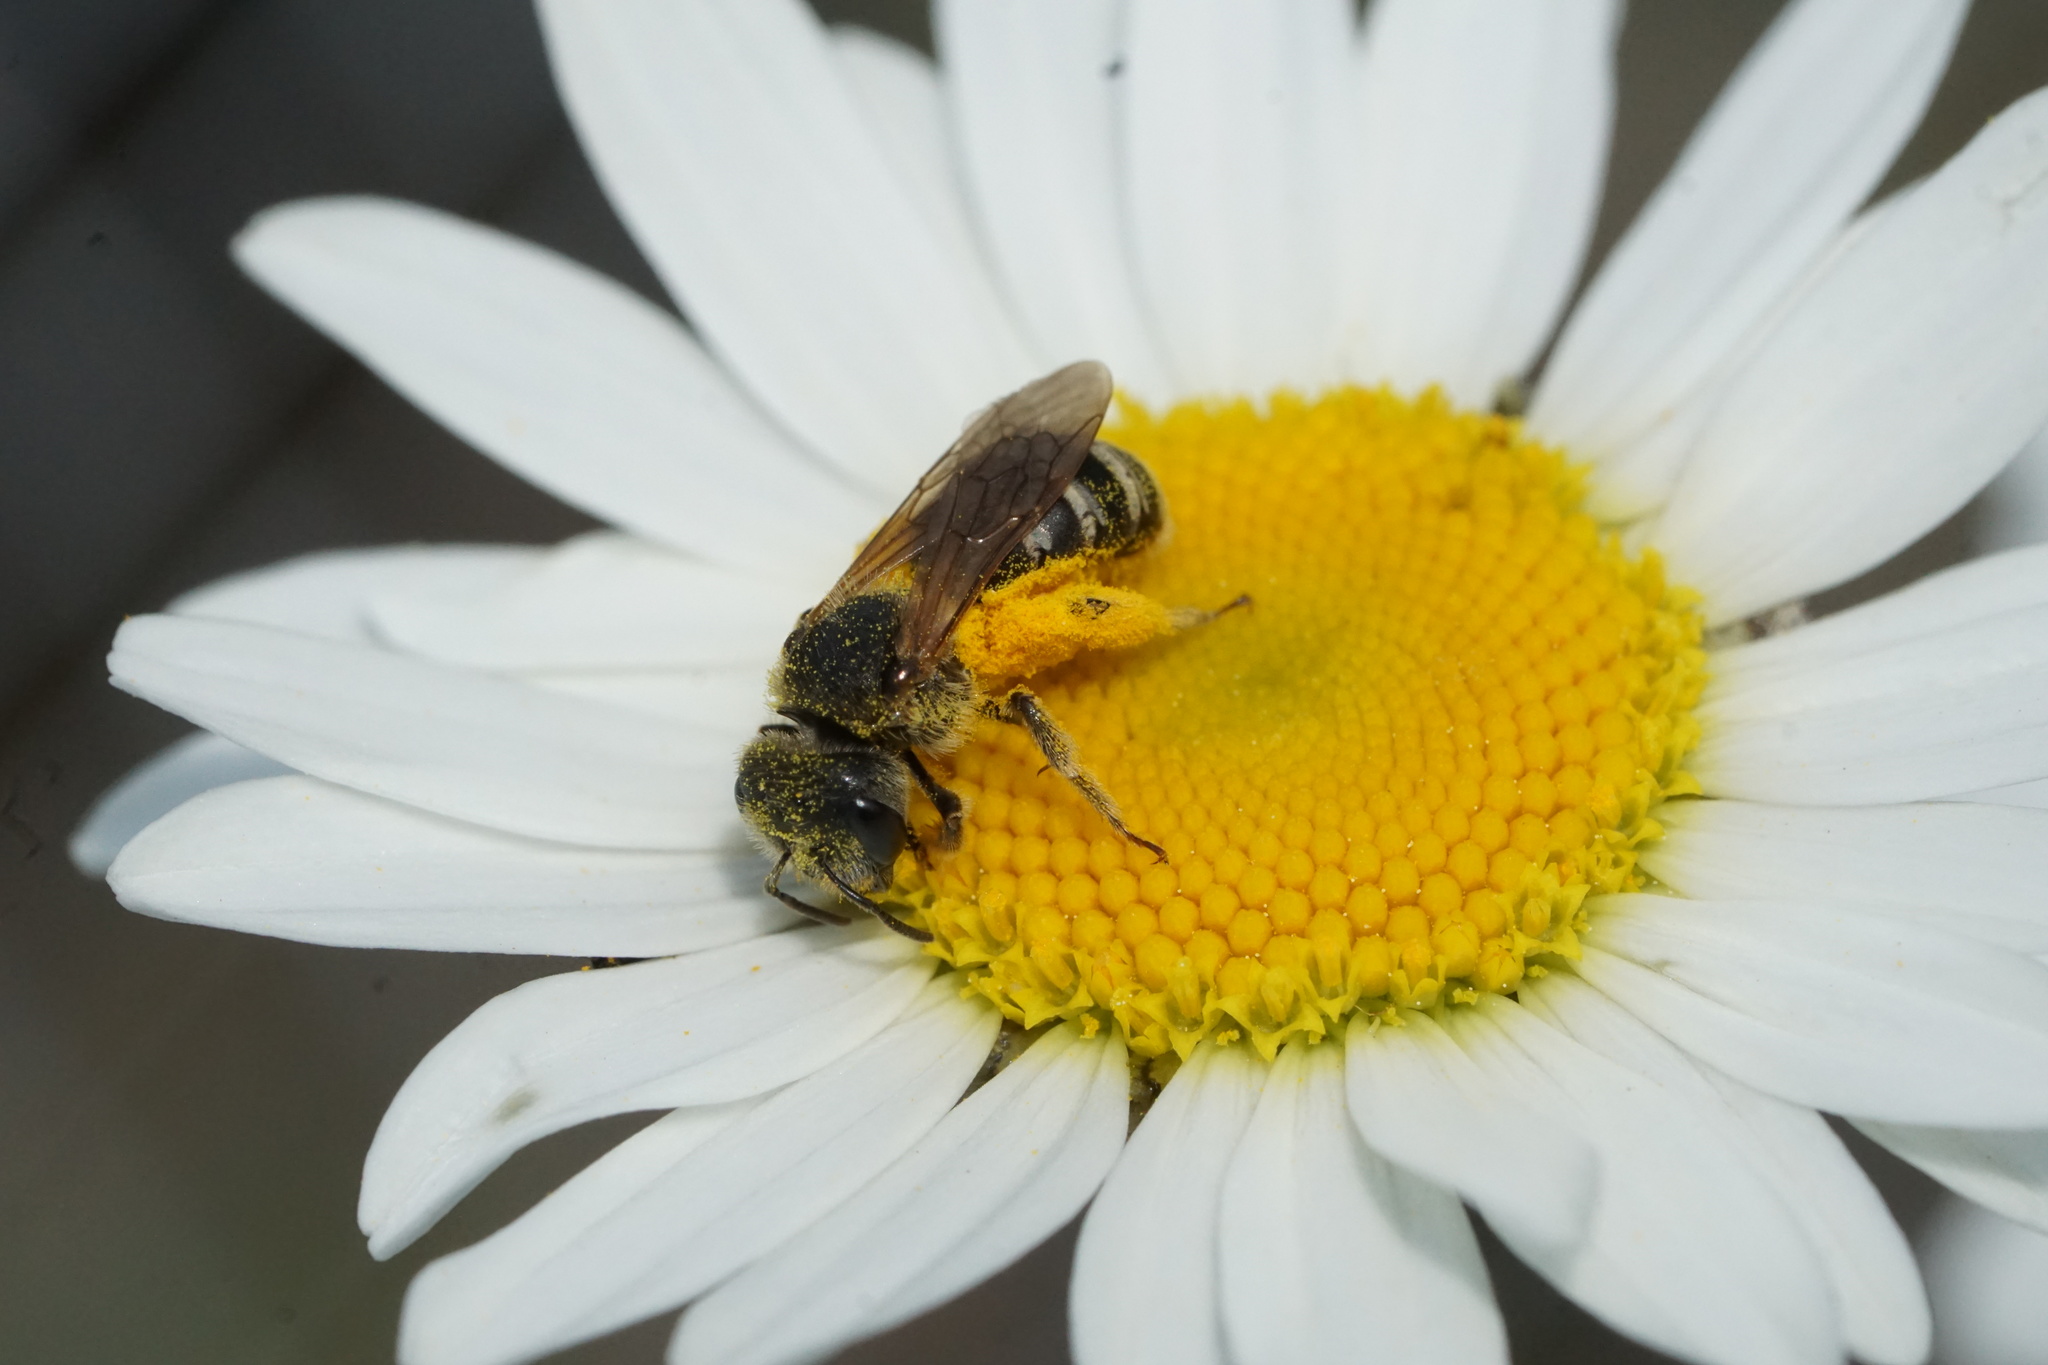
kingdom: Animalia
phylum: Arthropoda
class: Insecta
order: Hymenoptera
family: Halictidae
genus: Halictus
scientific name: Halictus ligatus
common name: Ligated furrow bee
